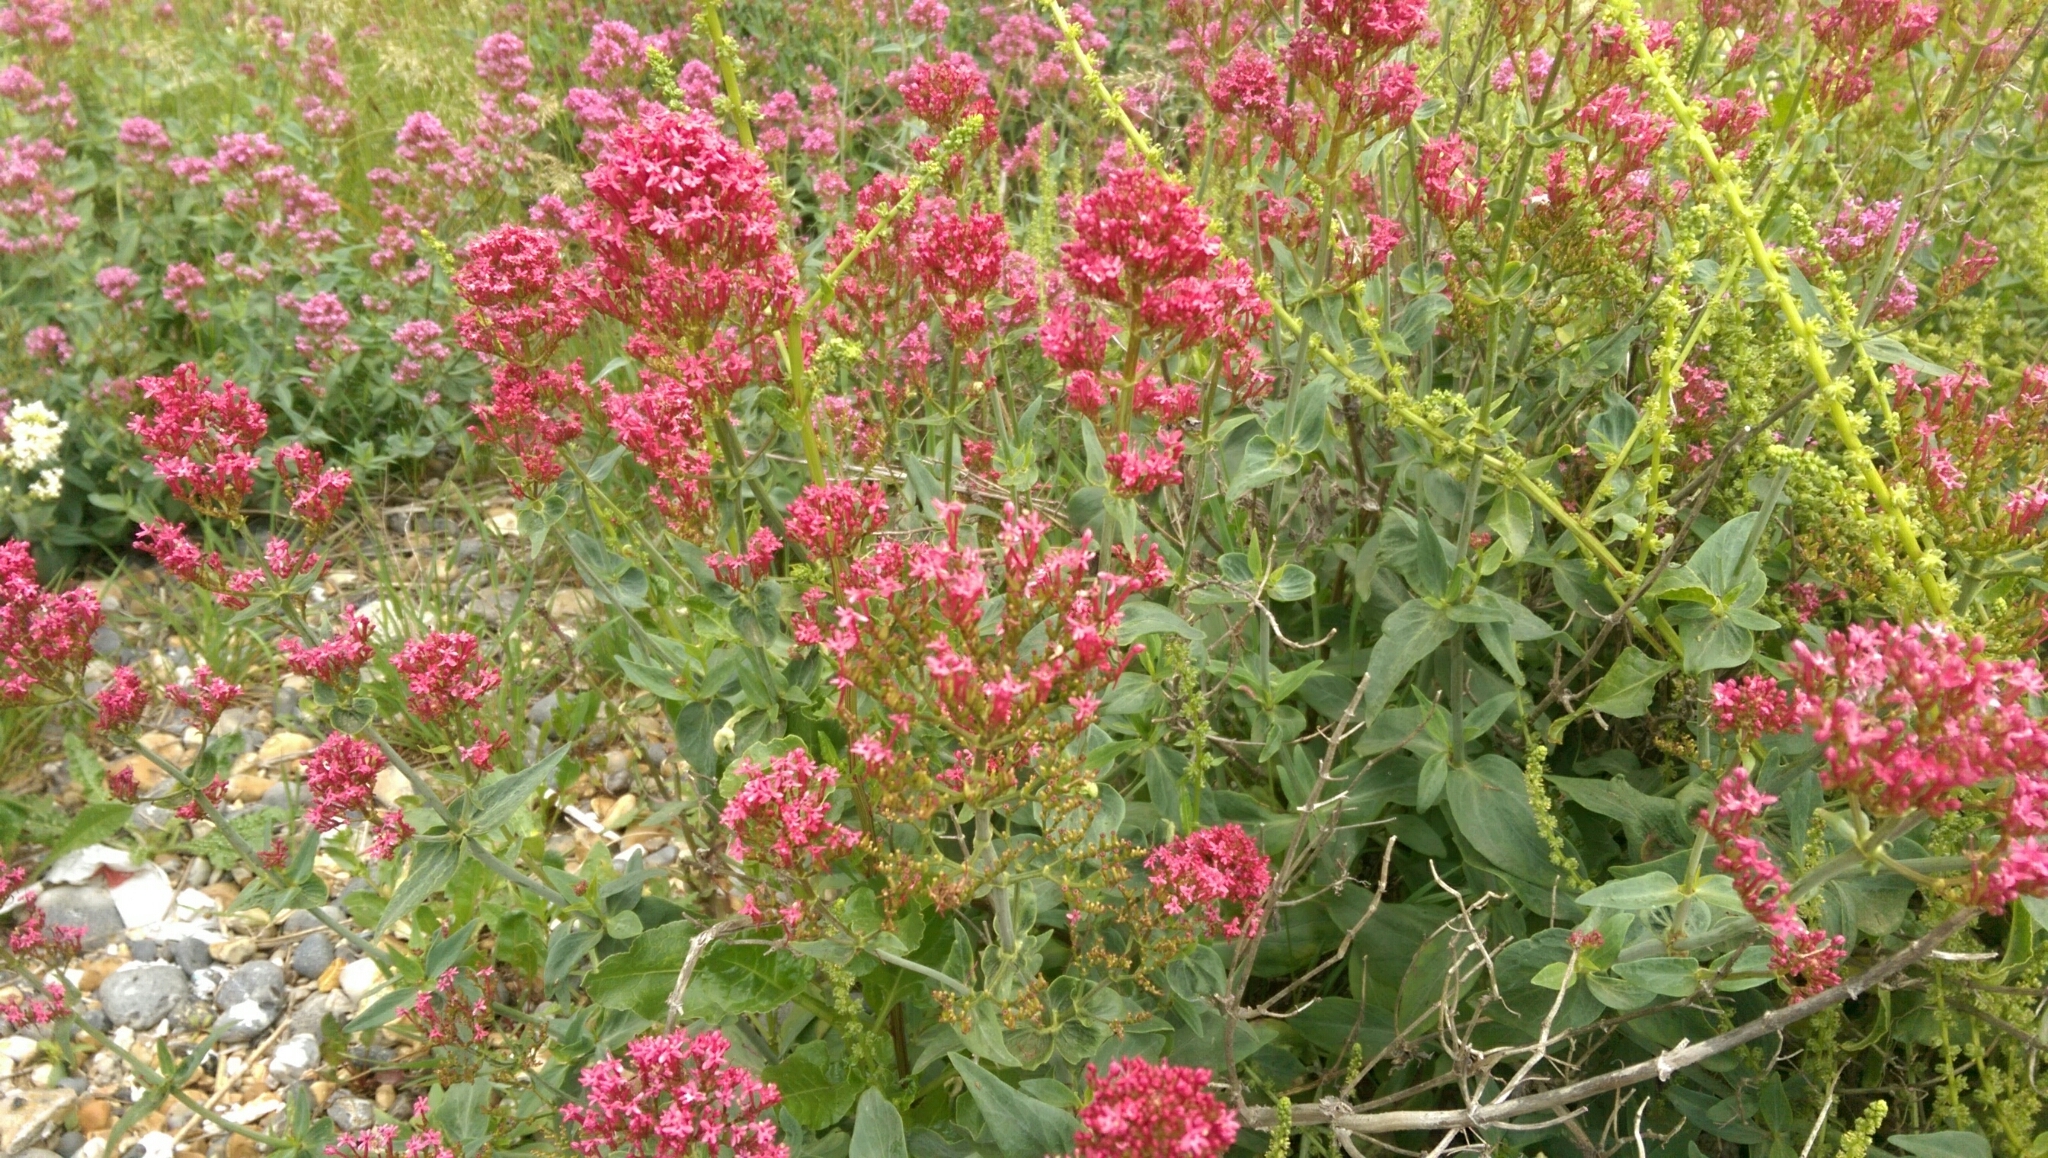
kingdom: Plantae
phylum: Tracheophyta
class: Magnoliopsida
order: Dipsacales
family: Caprifoliaceae
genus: Centranthus
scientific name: Centranthus ruber
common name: Red valerian
